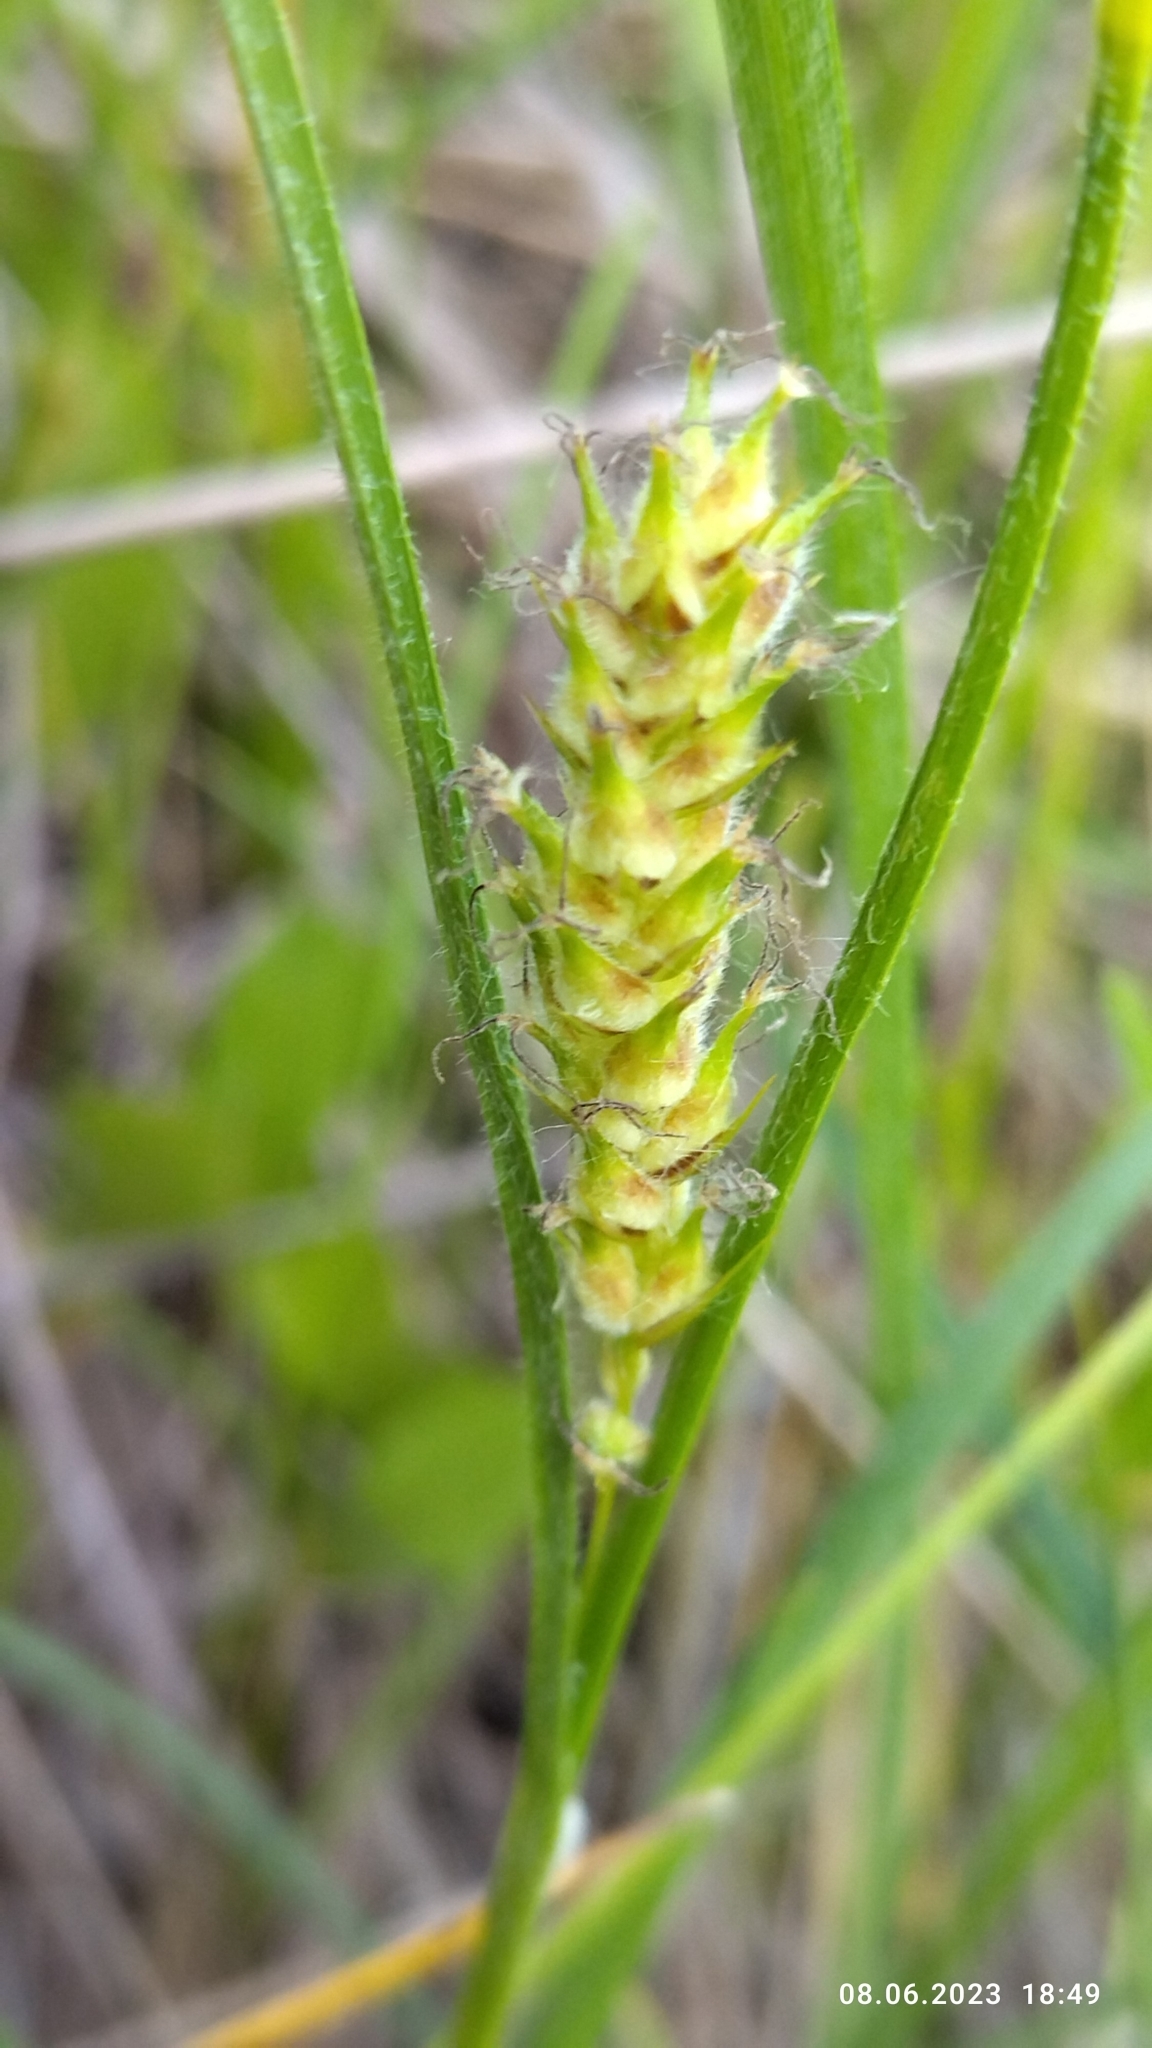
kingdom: Plantae
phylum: Tracheophyta
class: Liliopsida
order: Poales
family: Cyperaceae
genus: Carex
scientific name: Carex hirta
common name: Hairy sedge
